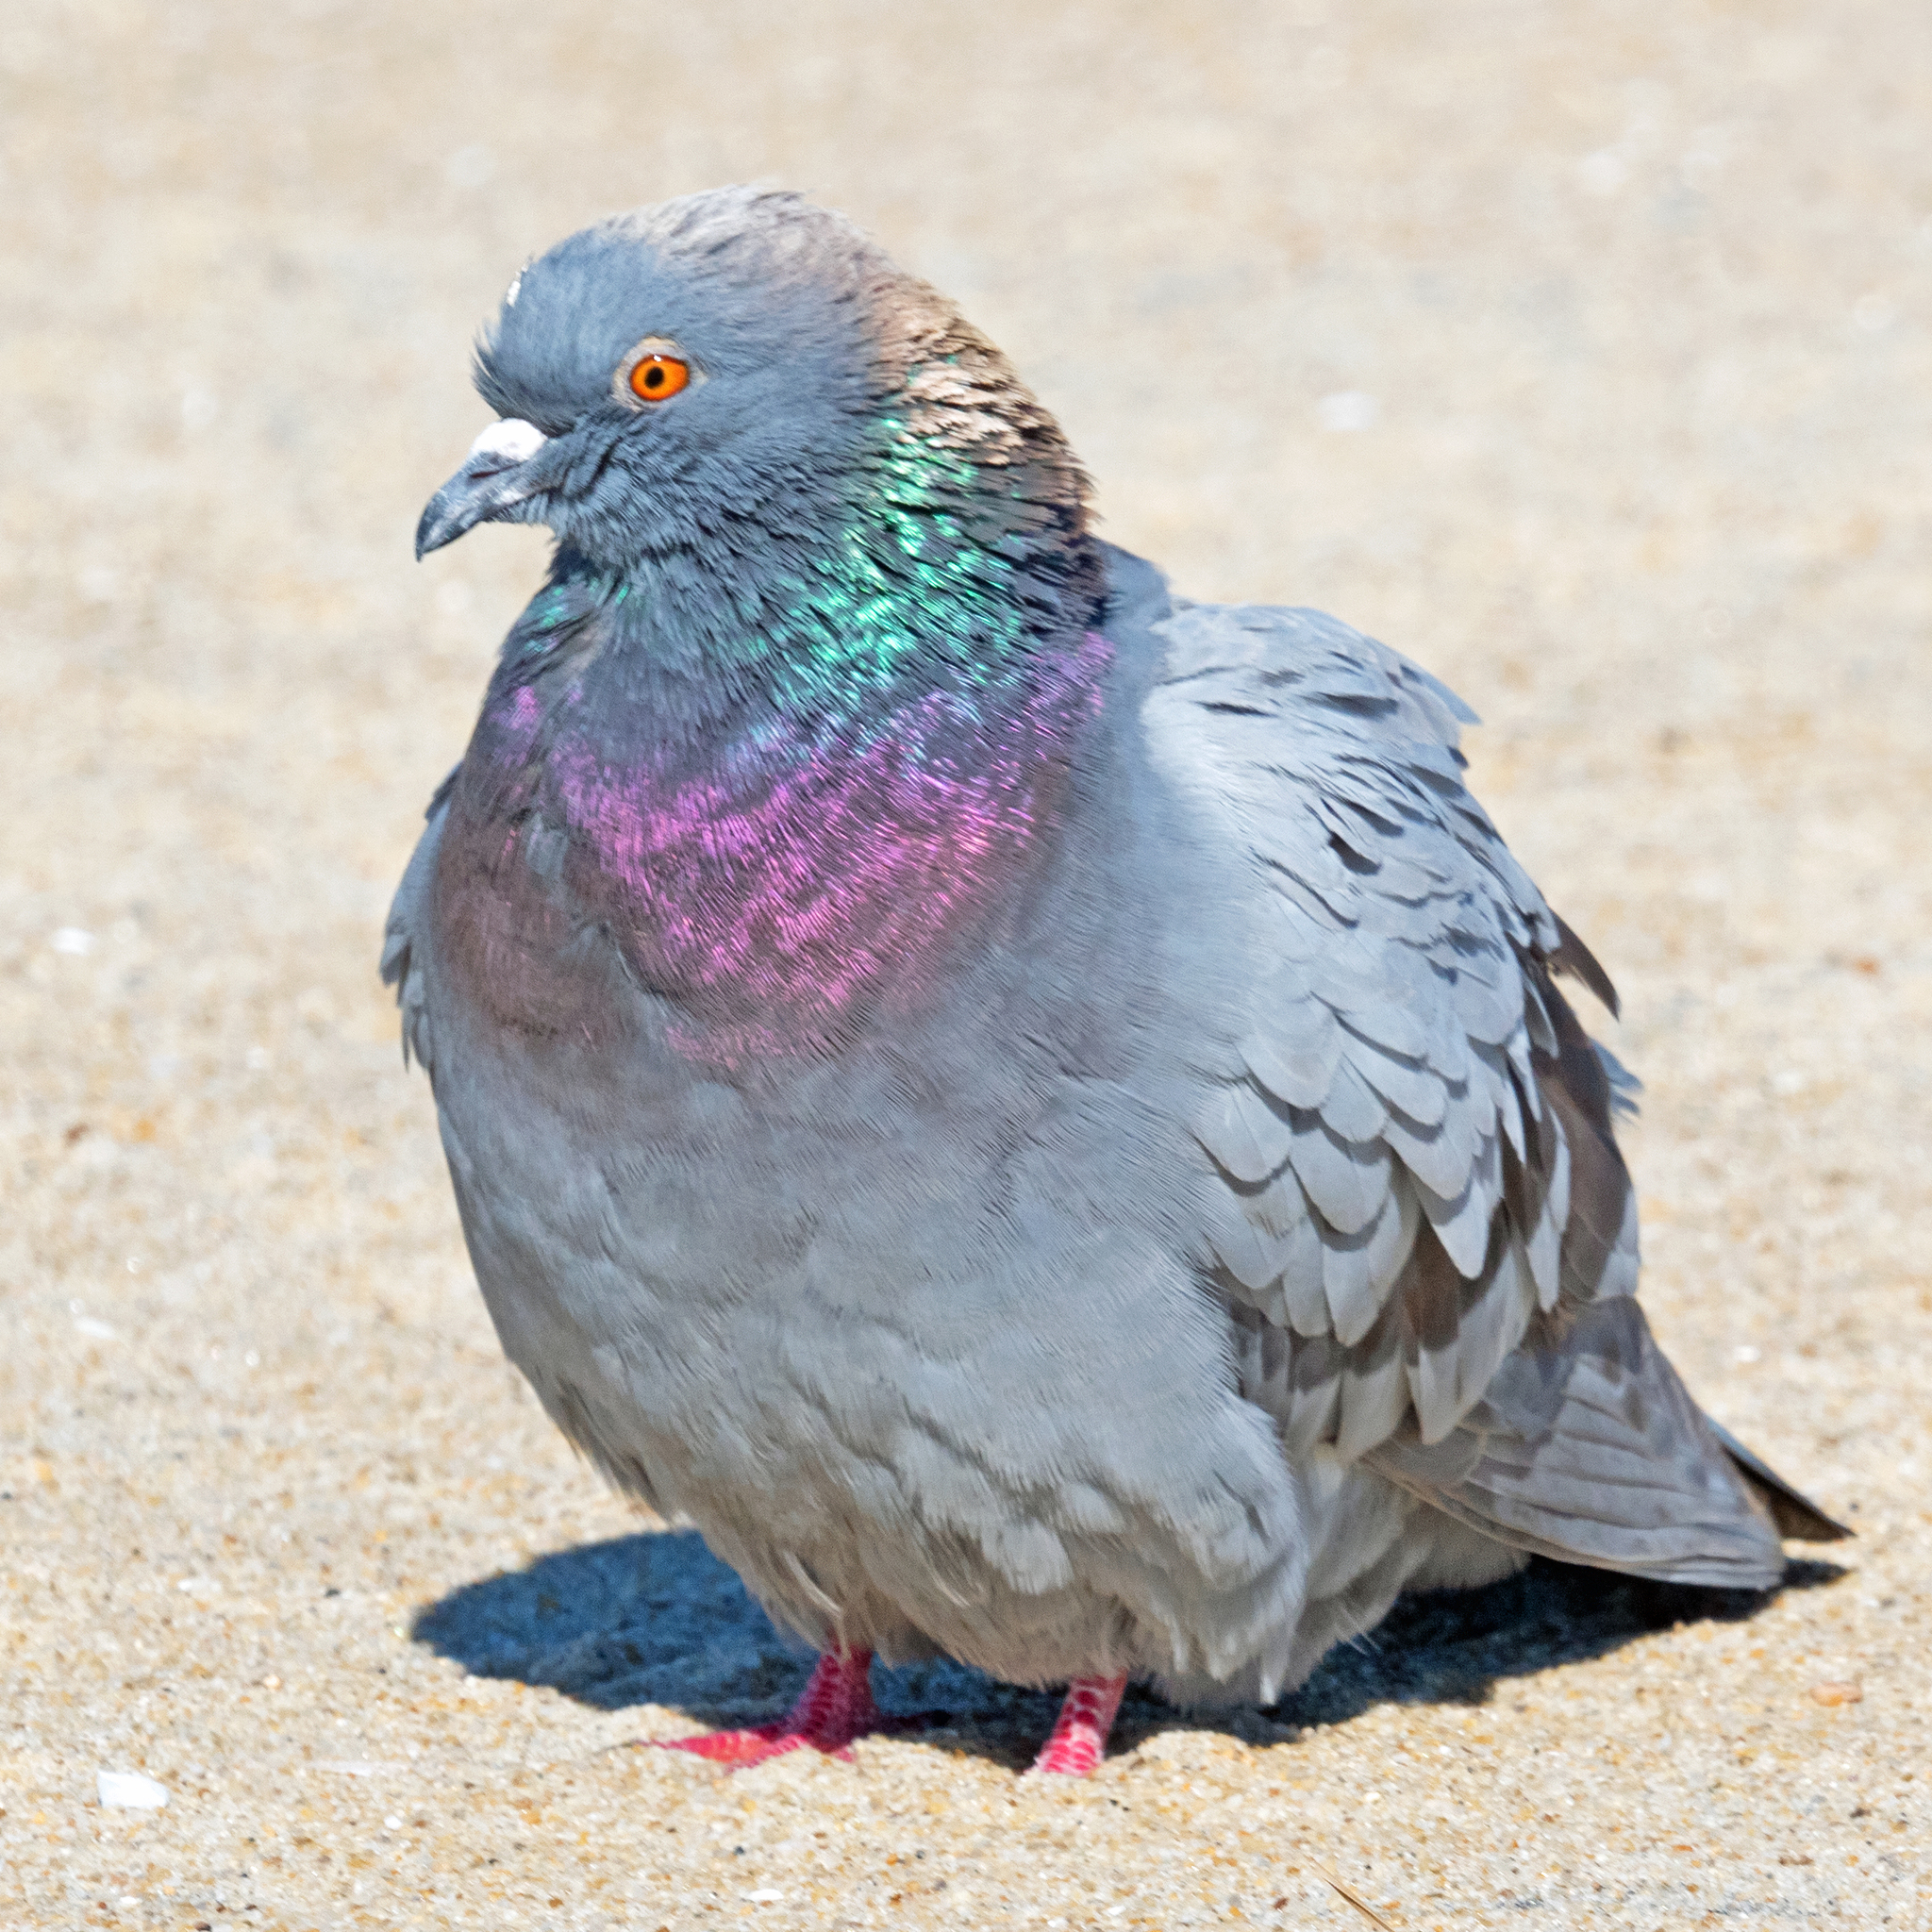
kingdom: Animalia
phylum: Chordata
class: Aves
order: Columbiformes
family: Columbidae
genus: Columba
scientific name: Columba livia
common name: Rock pigeon
